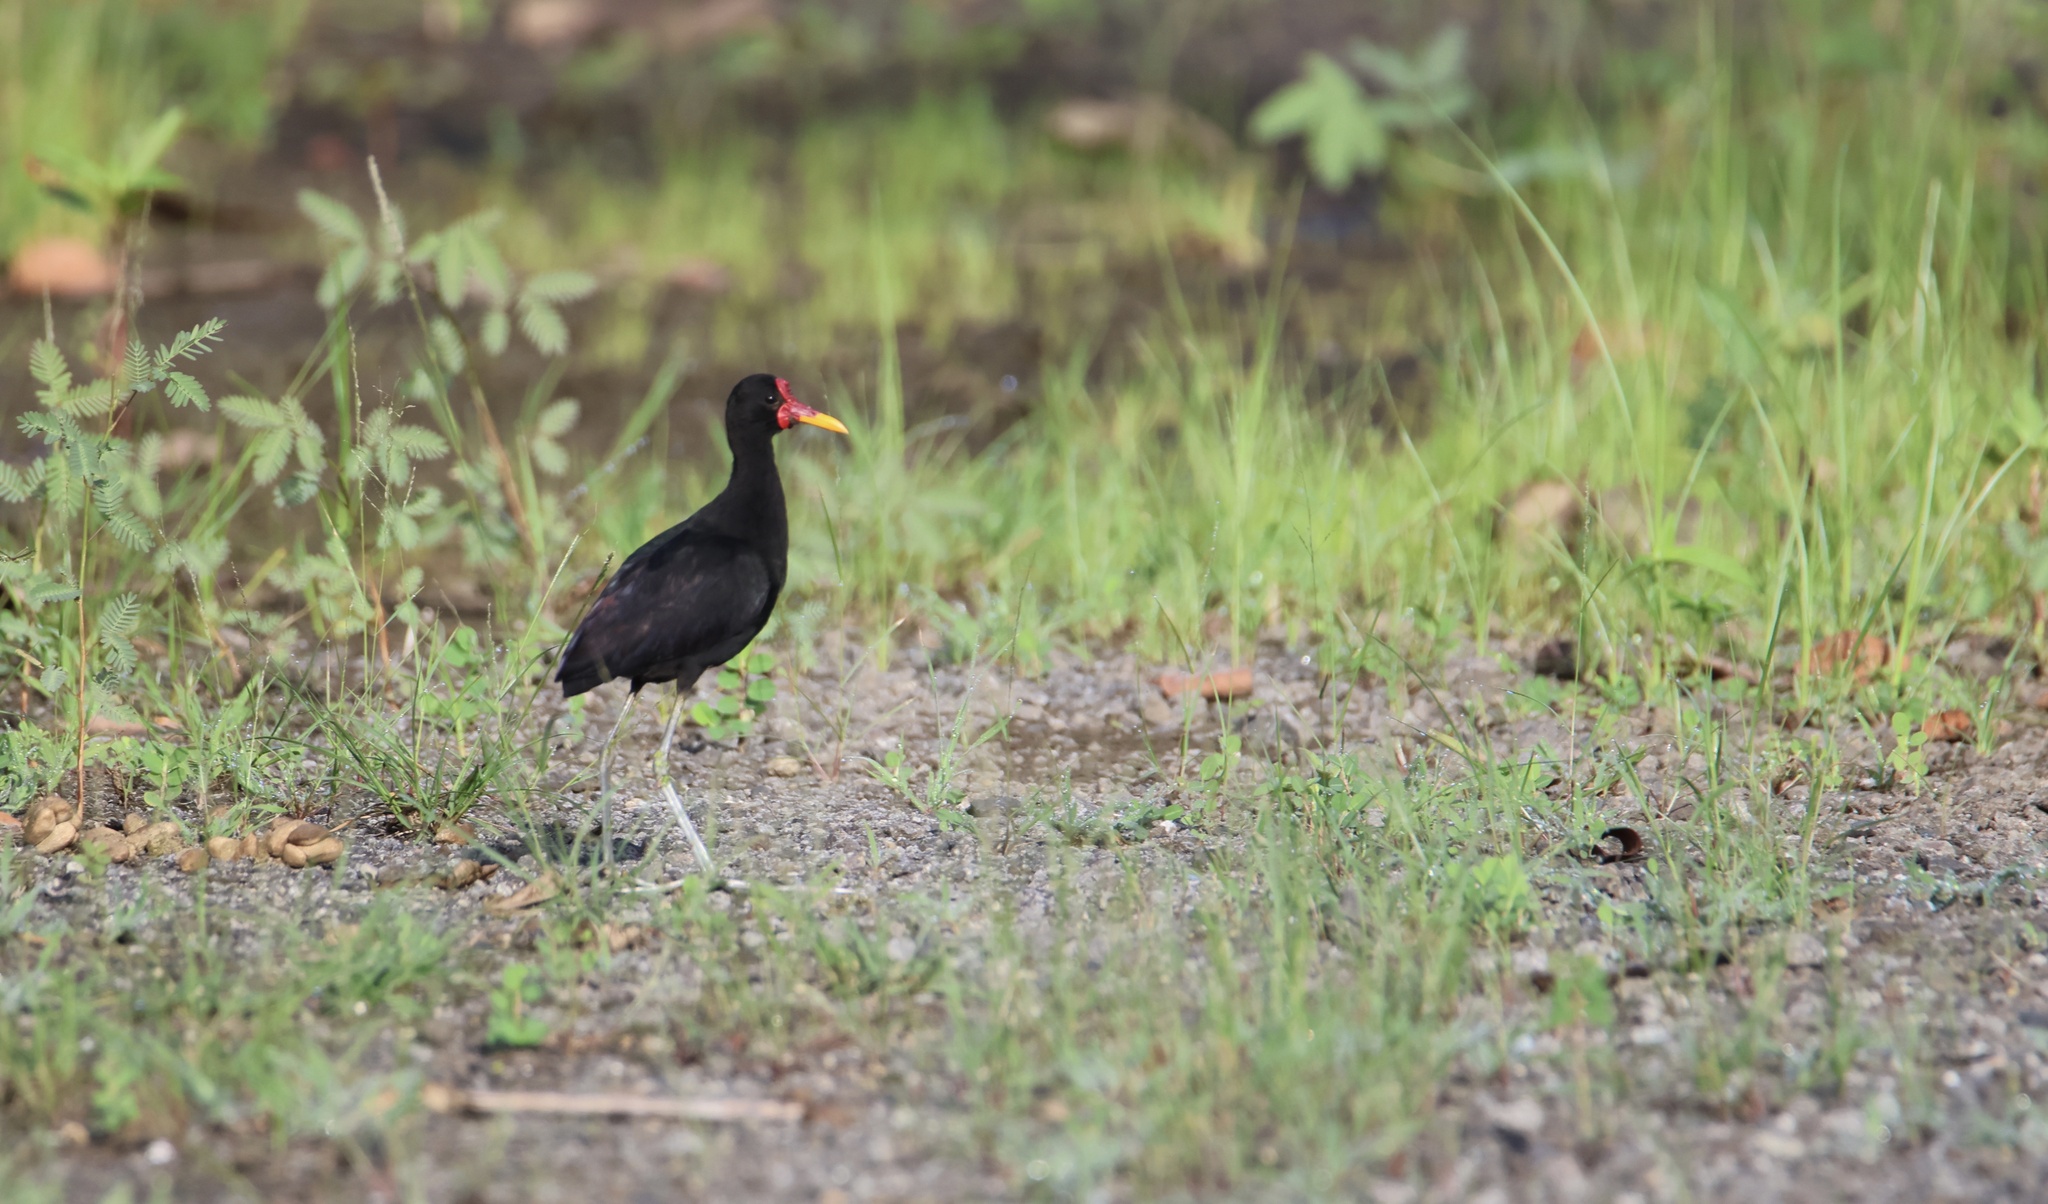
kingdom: Animalia
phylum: Chordata
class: Aves
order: Charadriiformes
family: Jacanidae
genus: Jacana
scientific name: Jacana jacana
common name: Wattled jacana
